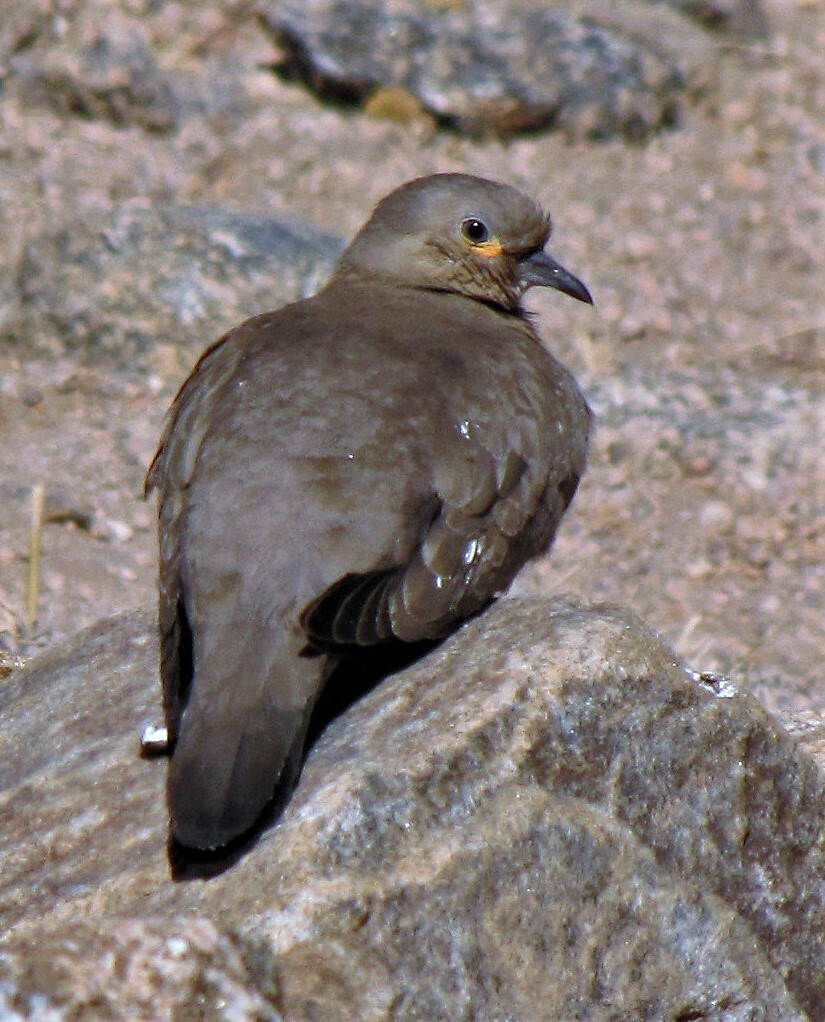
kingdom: Animalia
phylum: Chordata
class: Aves
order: Columbiformes
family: Columbidae
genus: Metriopelia
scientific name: Metriopelia melanoptera
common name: Black-winged ground dove
